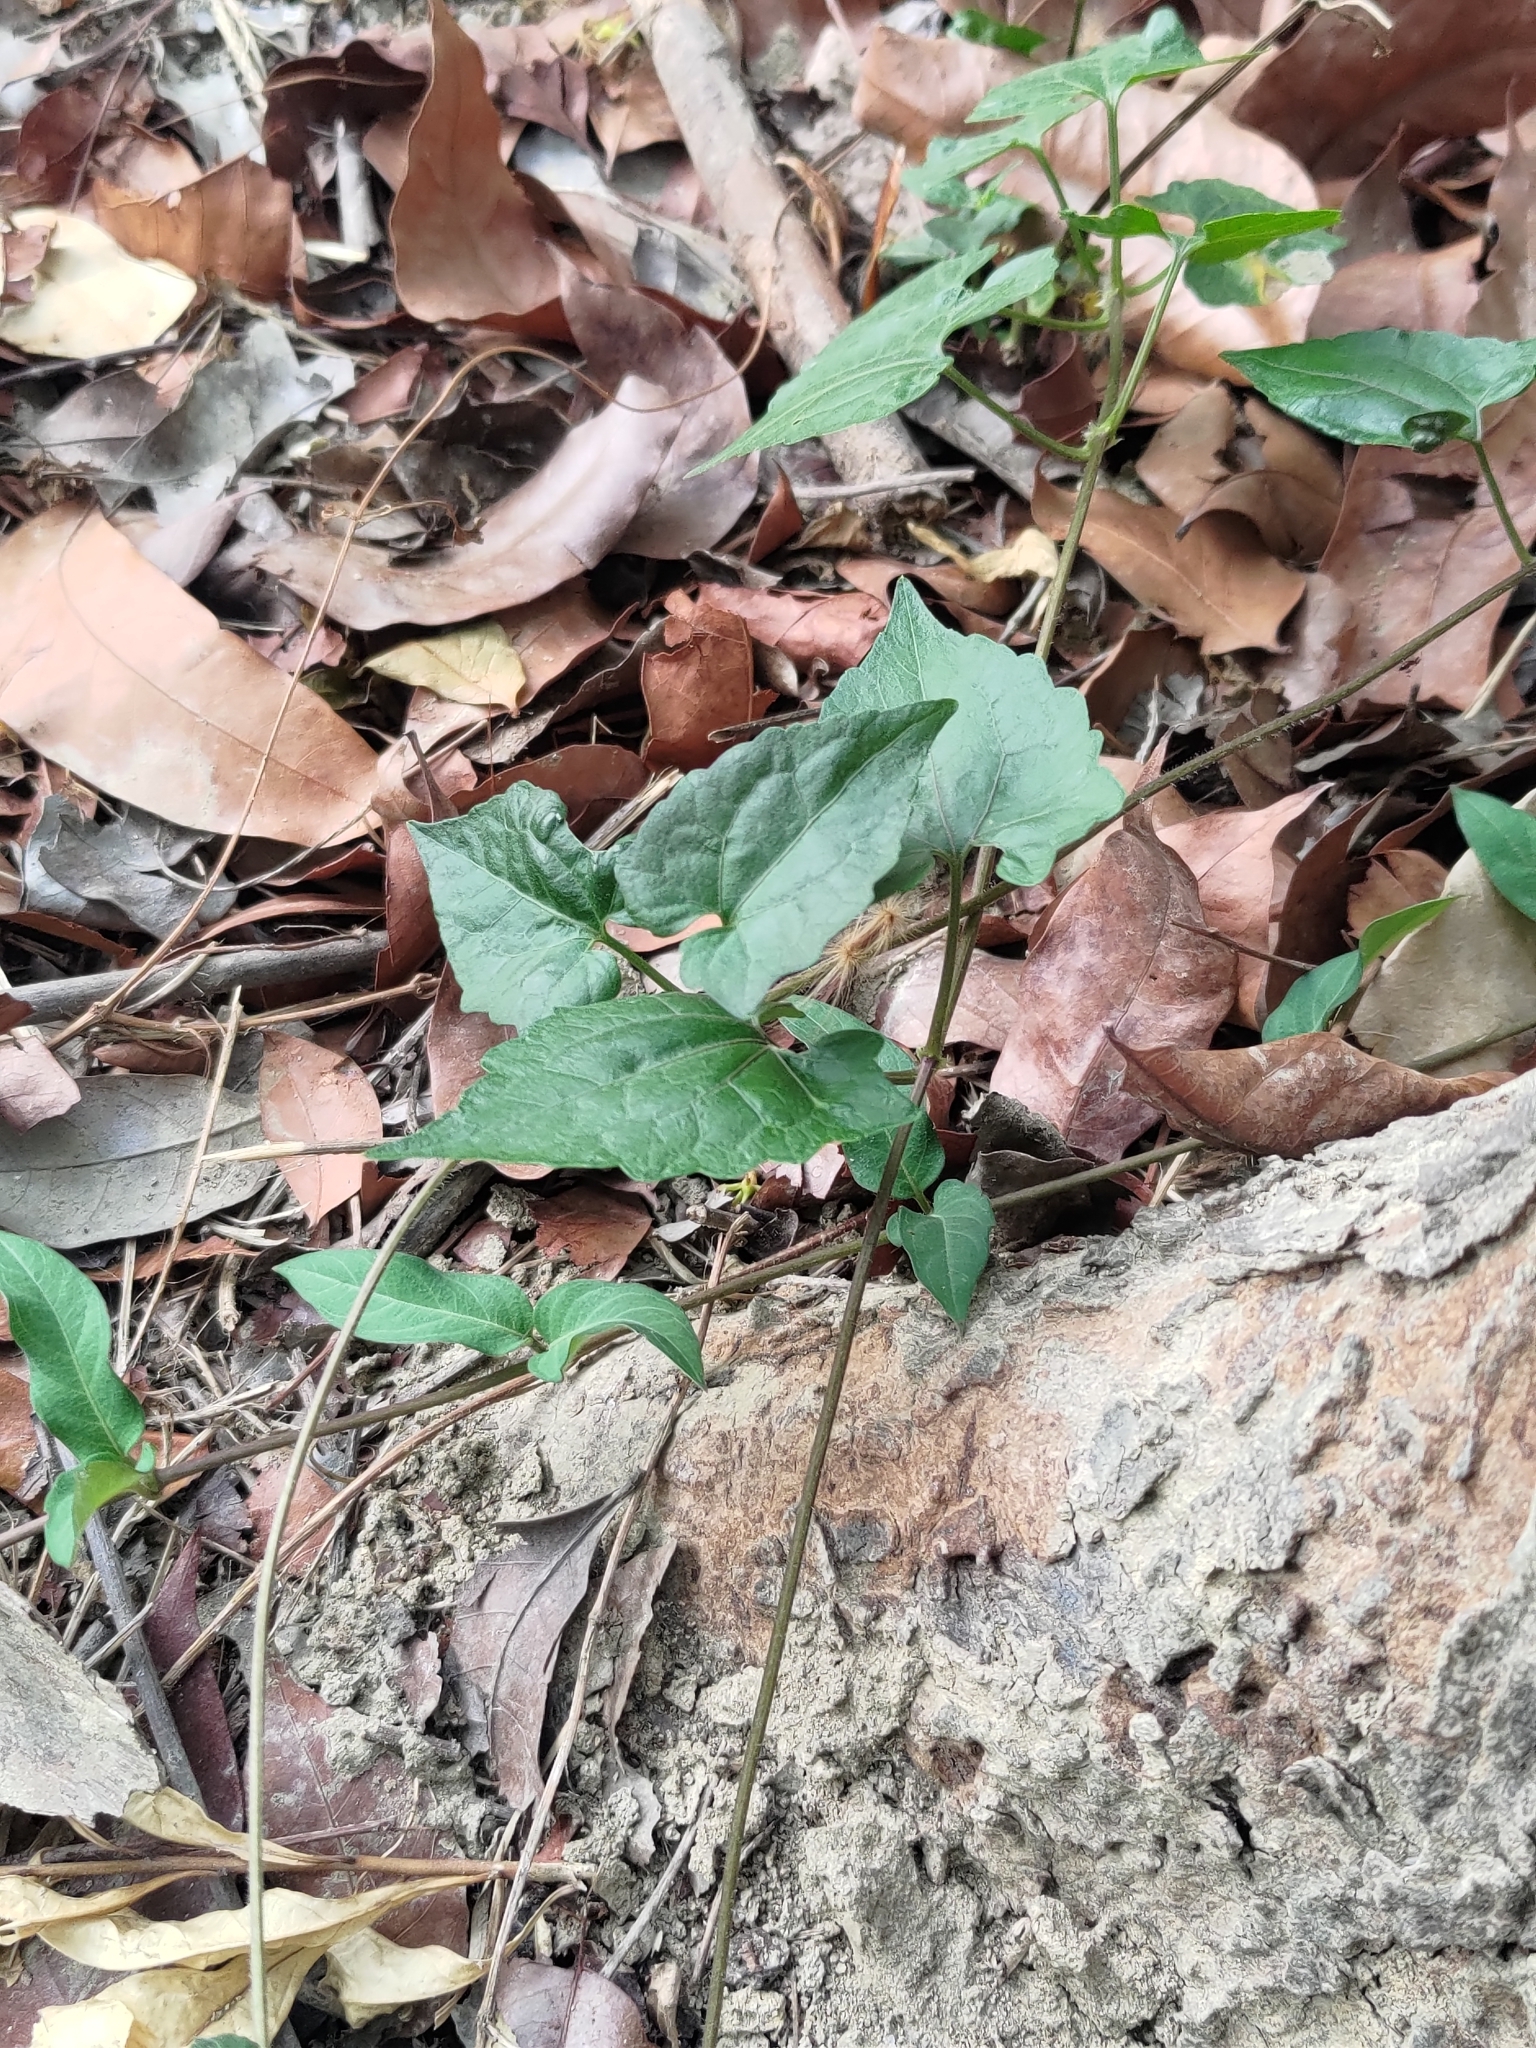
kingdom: Plantae
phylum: Tracheophyta
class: Magnoliopsida
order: Asterales
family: Asteraceae
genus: Mikania
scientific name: Mikania micrantha
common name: Mile-a-minute
